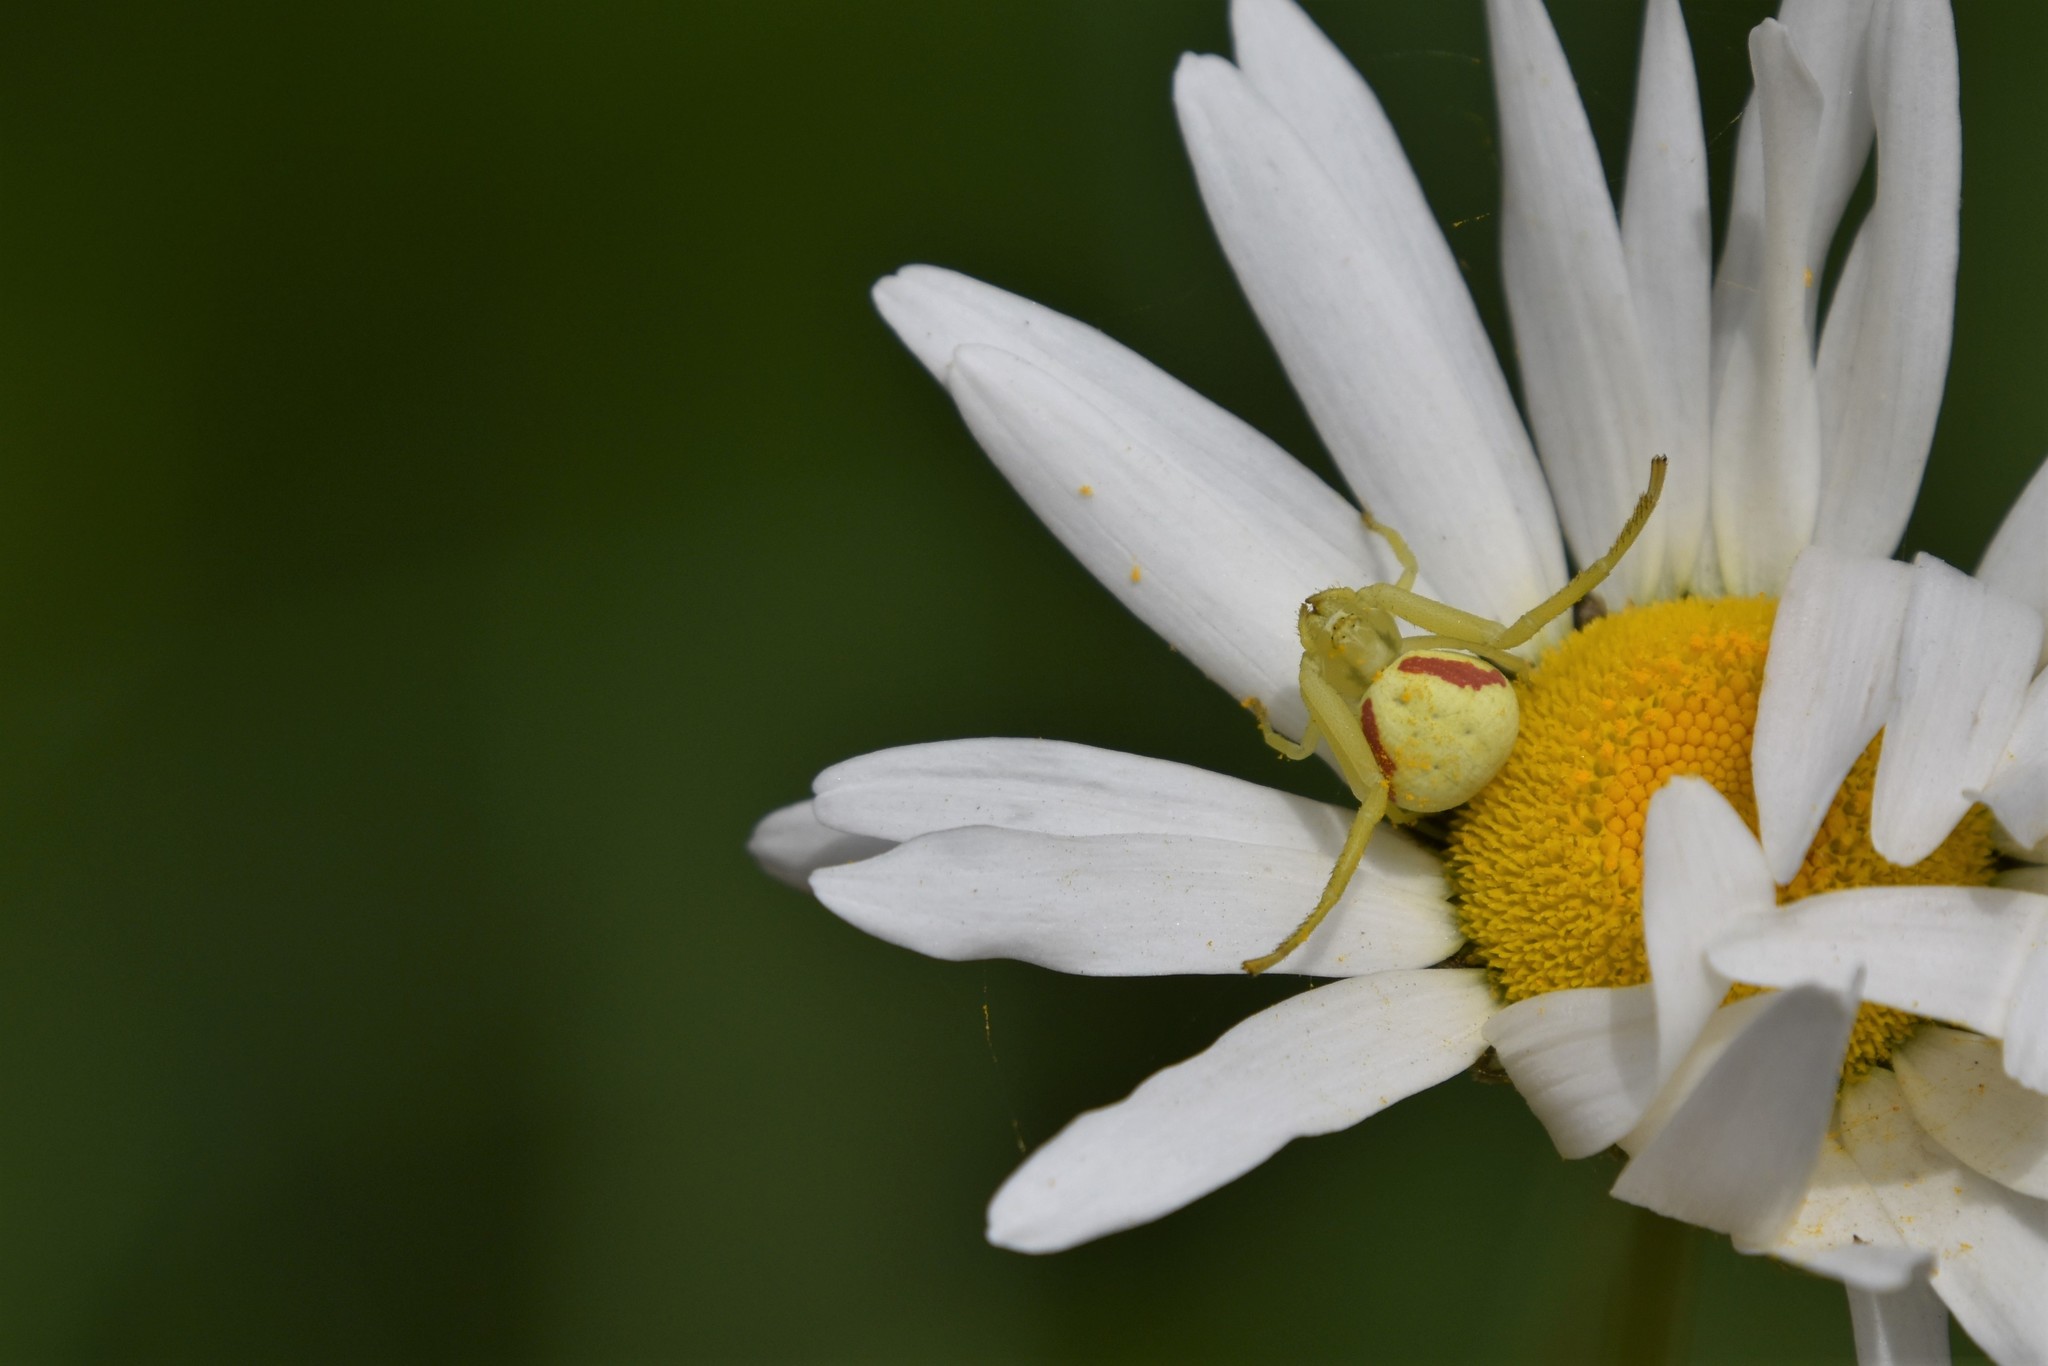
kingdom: Animalia
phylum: Arthropoda
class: Arachnida
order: Araneae
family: Thomisidae
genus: Misumena
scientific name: Misumena vatia
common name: Goldenrod crab spider
